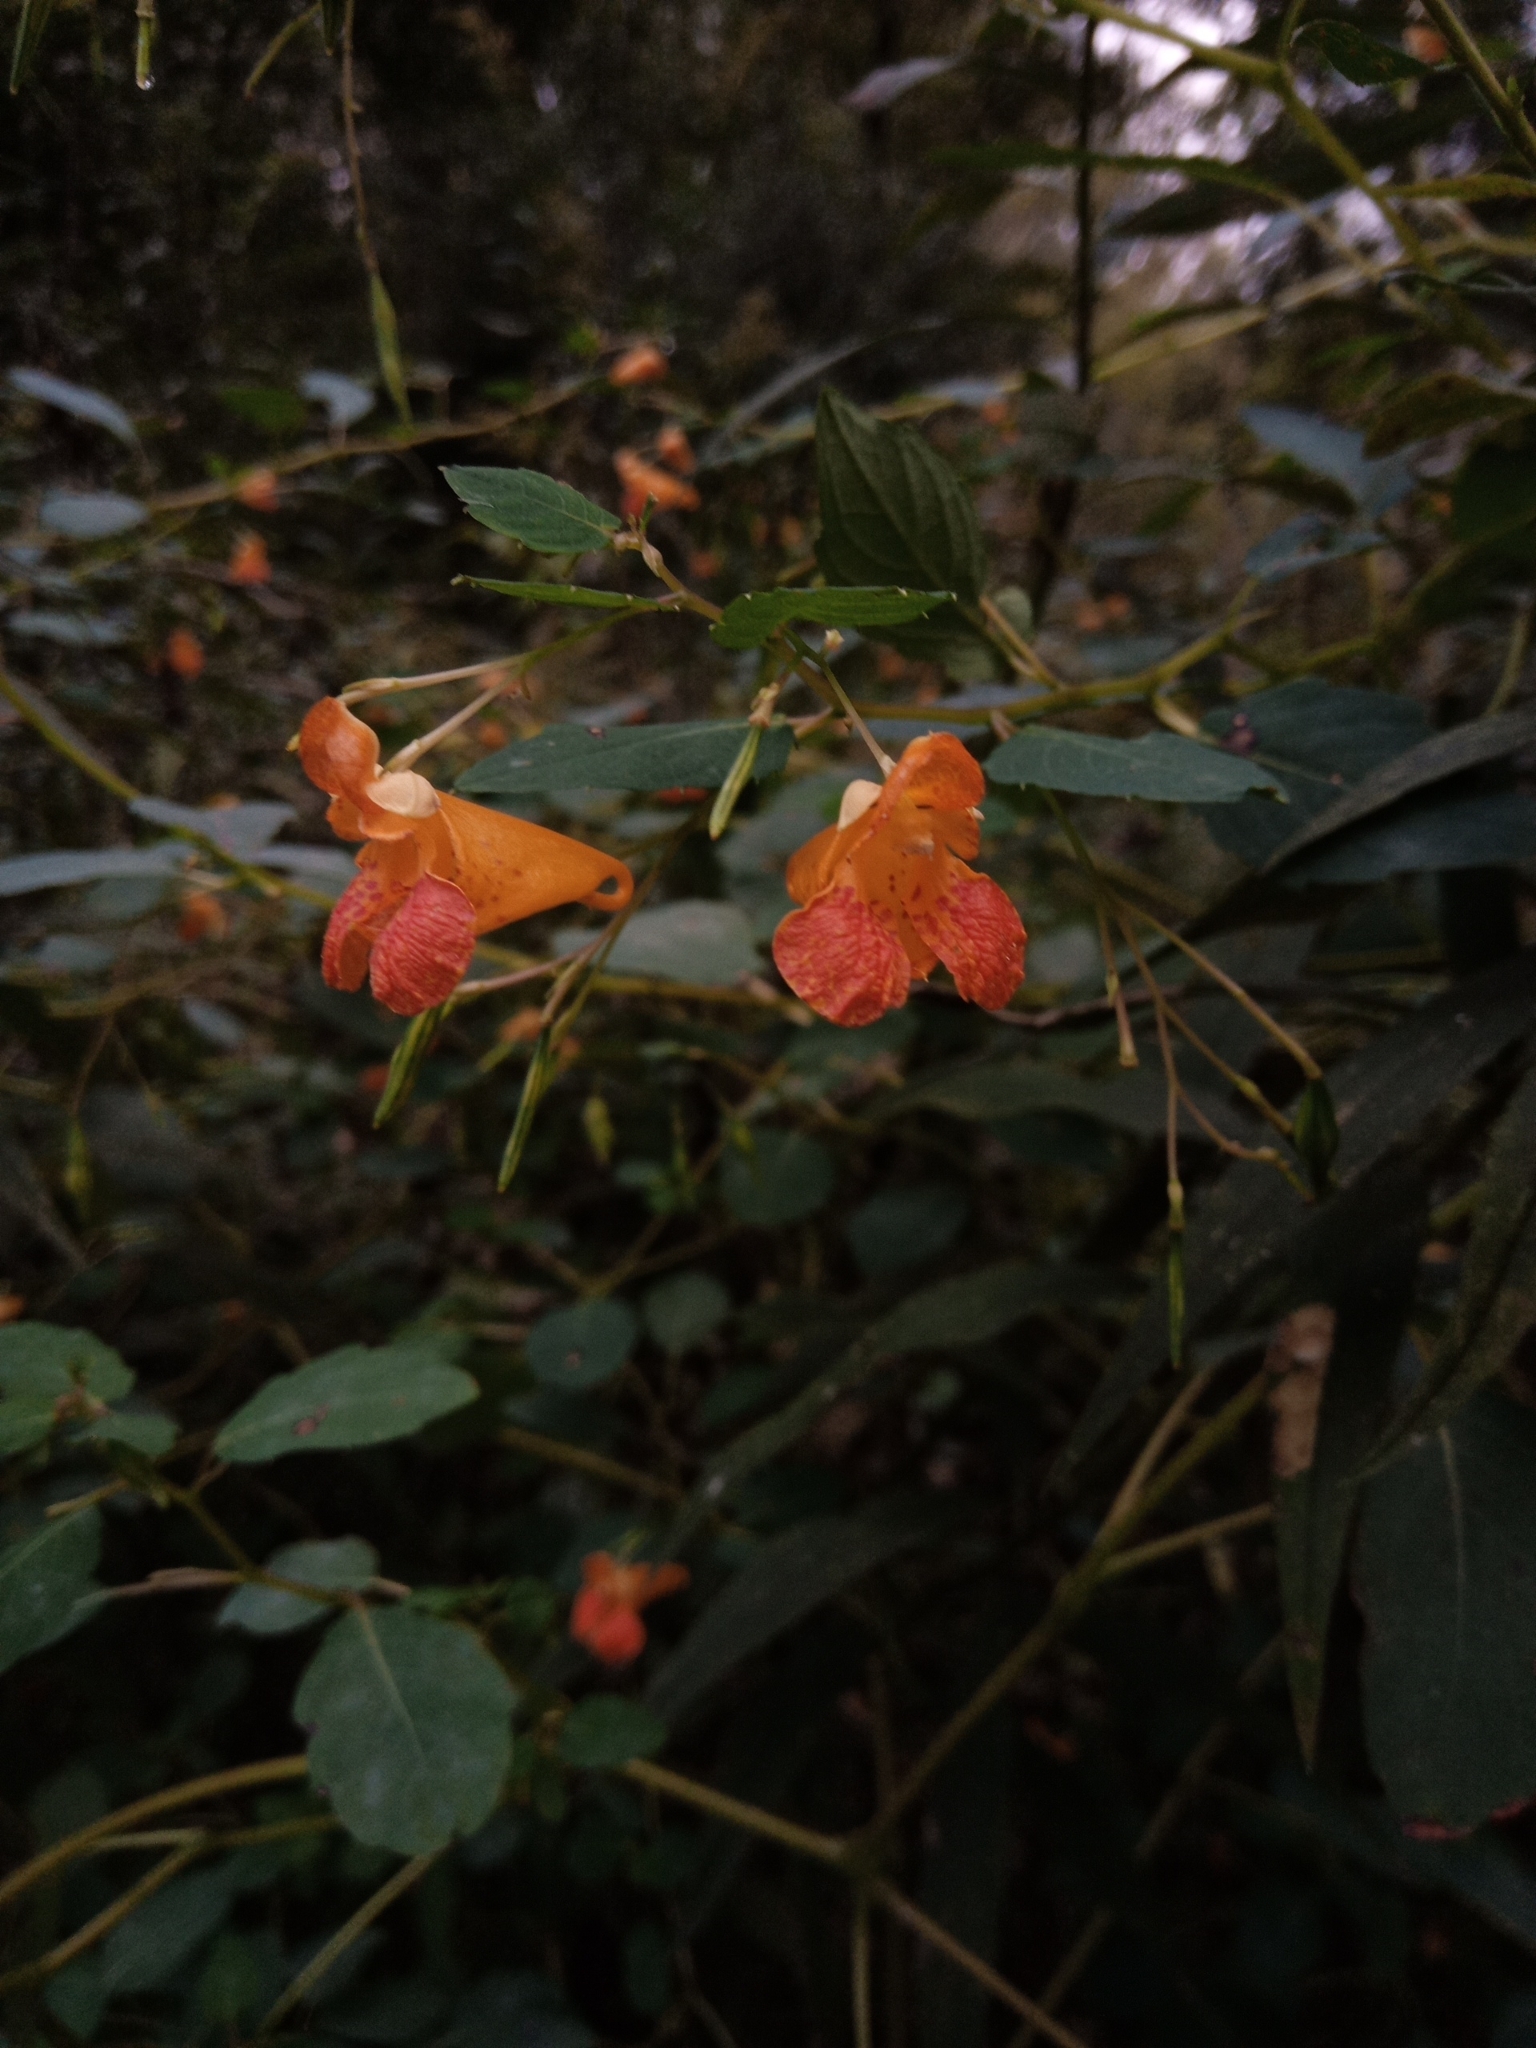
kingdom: Plantae
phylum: Tracheophyta
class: Magnoliopsida
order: Ericales
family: Balsaminaceae
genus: Impatiens
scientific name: Impatiens capensis
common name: Orange balsam
